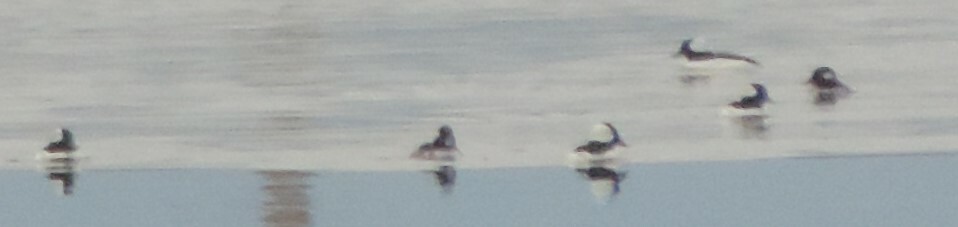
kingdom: Animalia
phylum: Chordata
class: Aves
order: Anseriformes
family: Anatidae
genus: Bucephala
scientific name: Bucephala albeola
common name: Bufflehead
